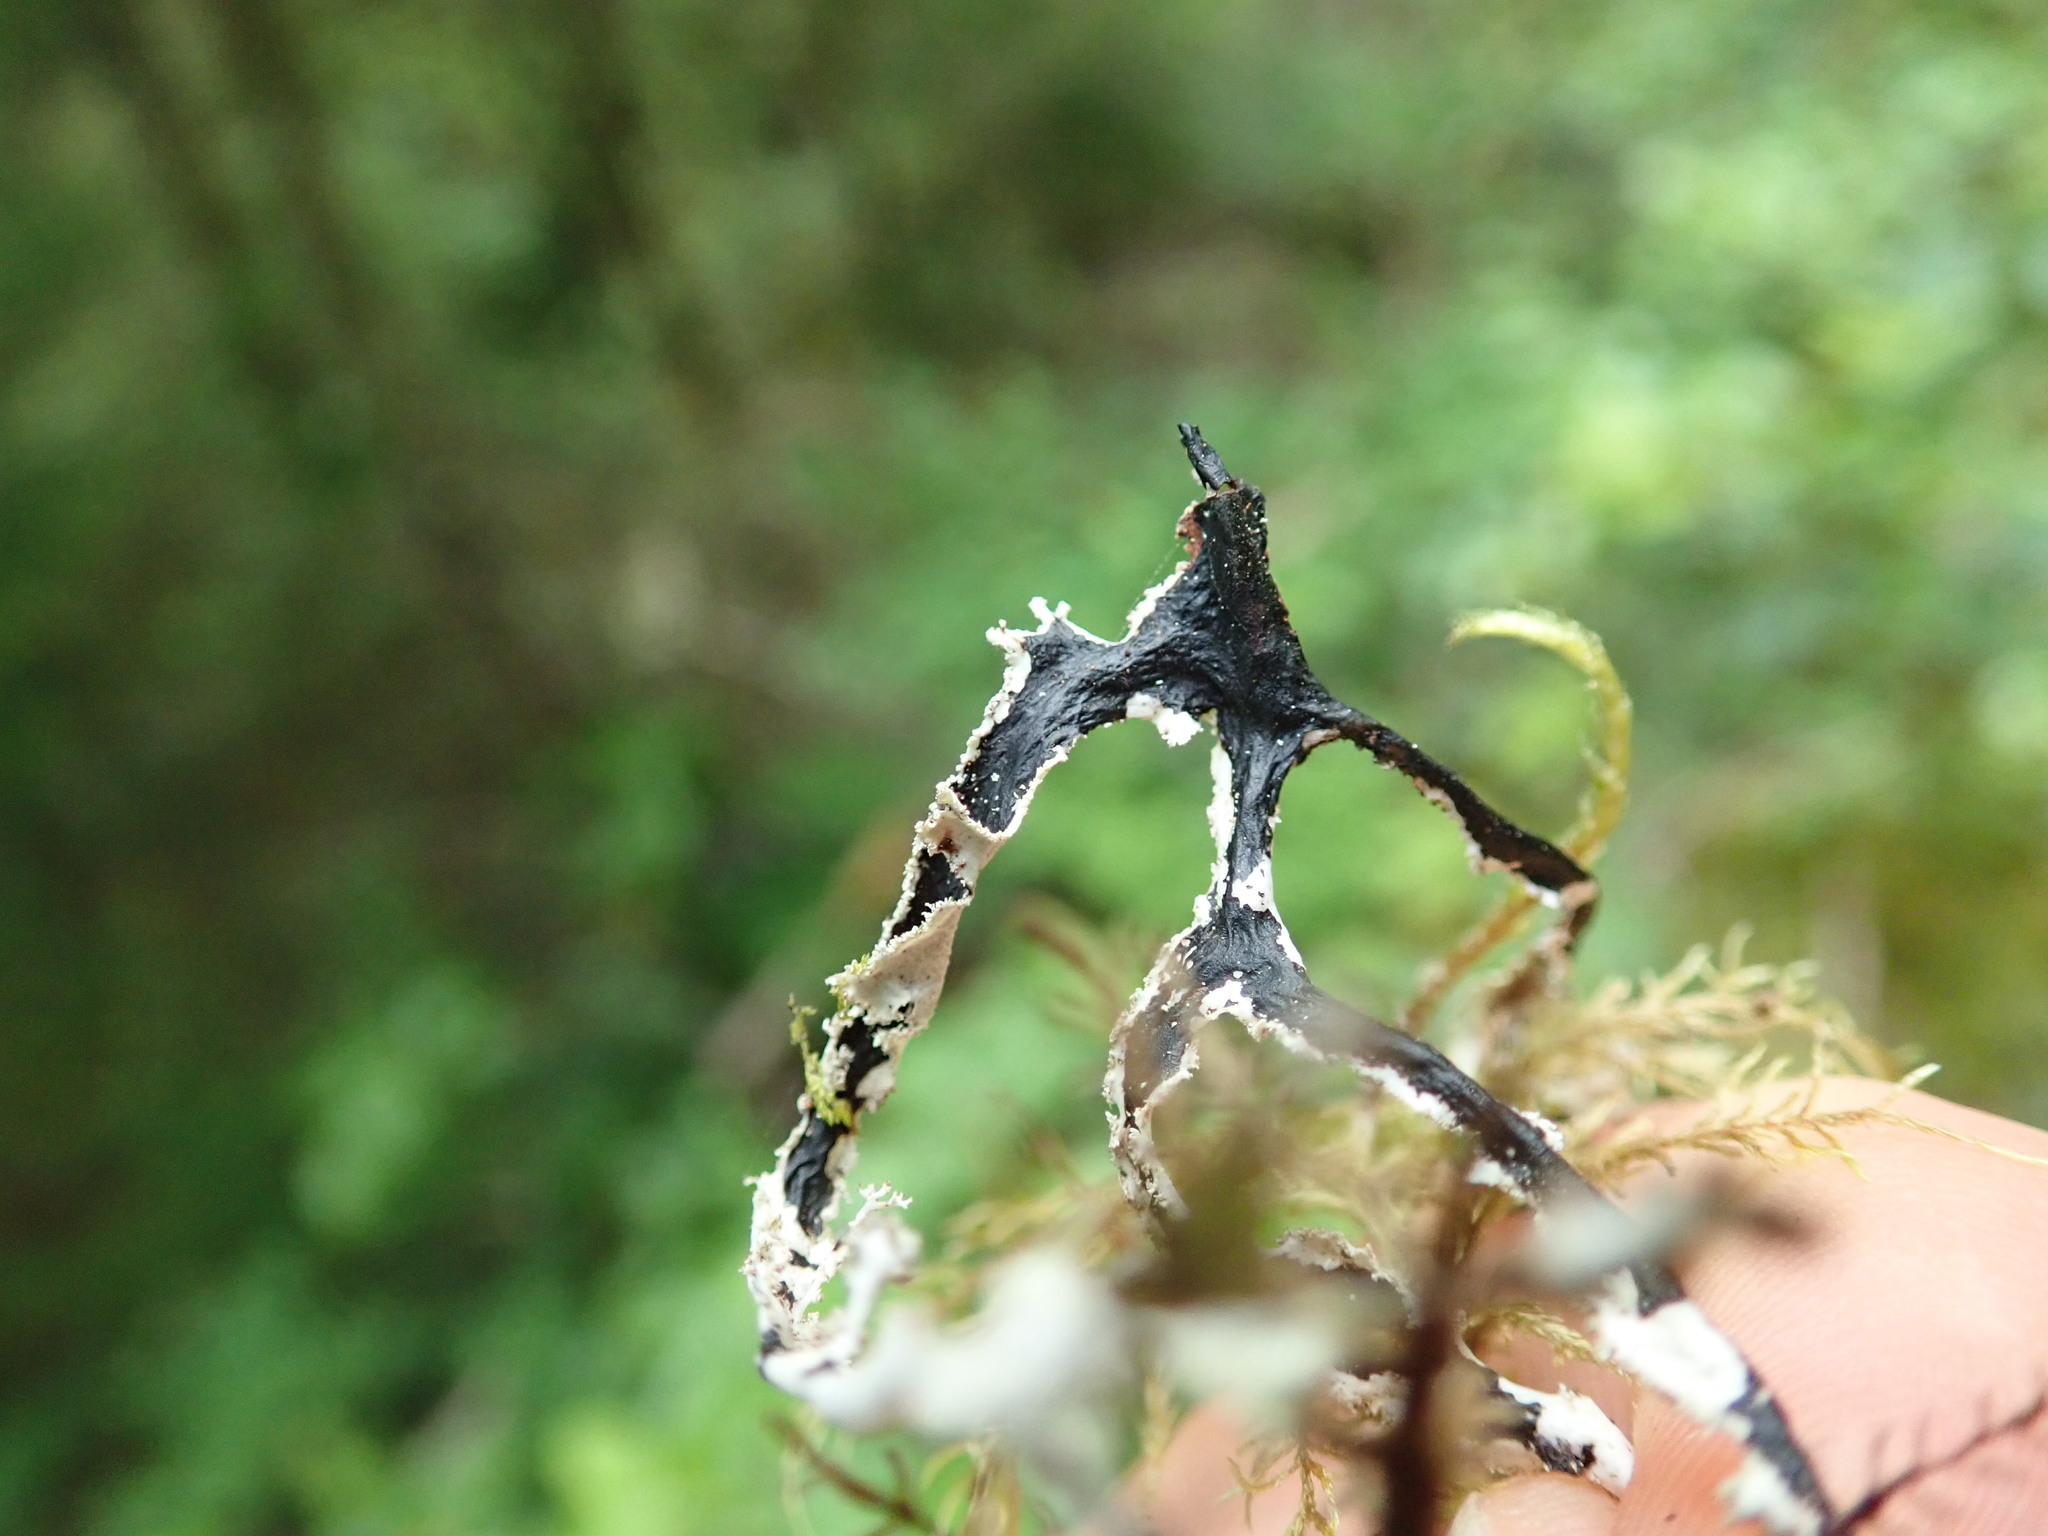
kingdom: Fungi
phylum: Ascomycota
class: Lecanoromycetes
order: Lecanorales
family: Parmeliaceae
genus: Platismatia
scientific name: Platismatia herrei
